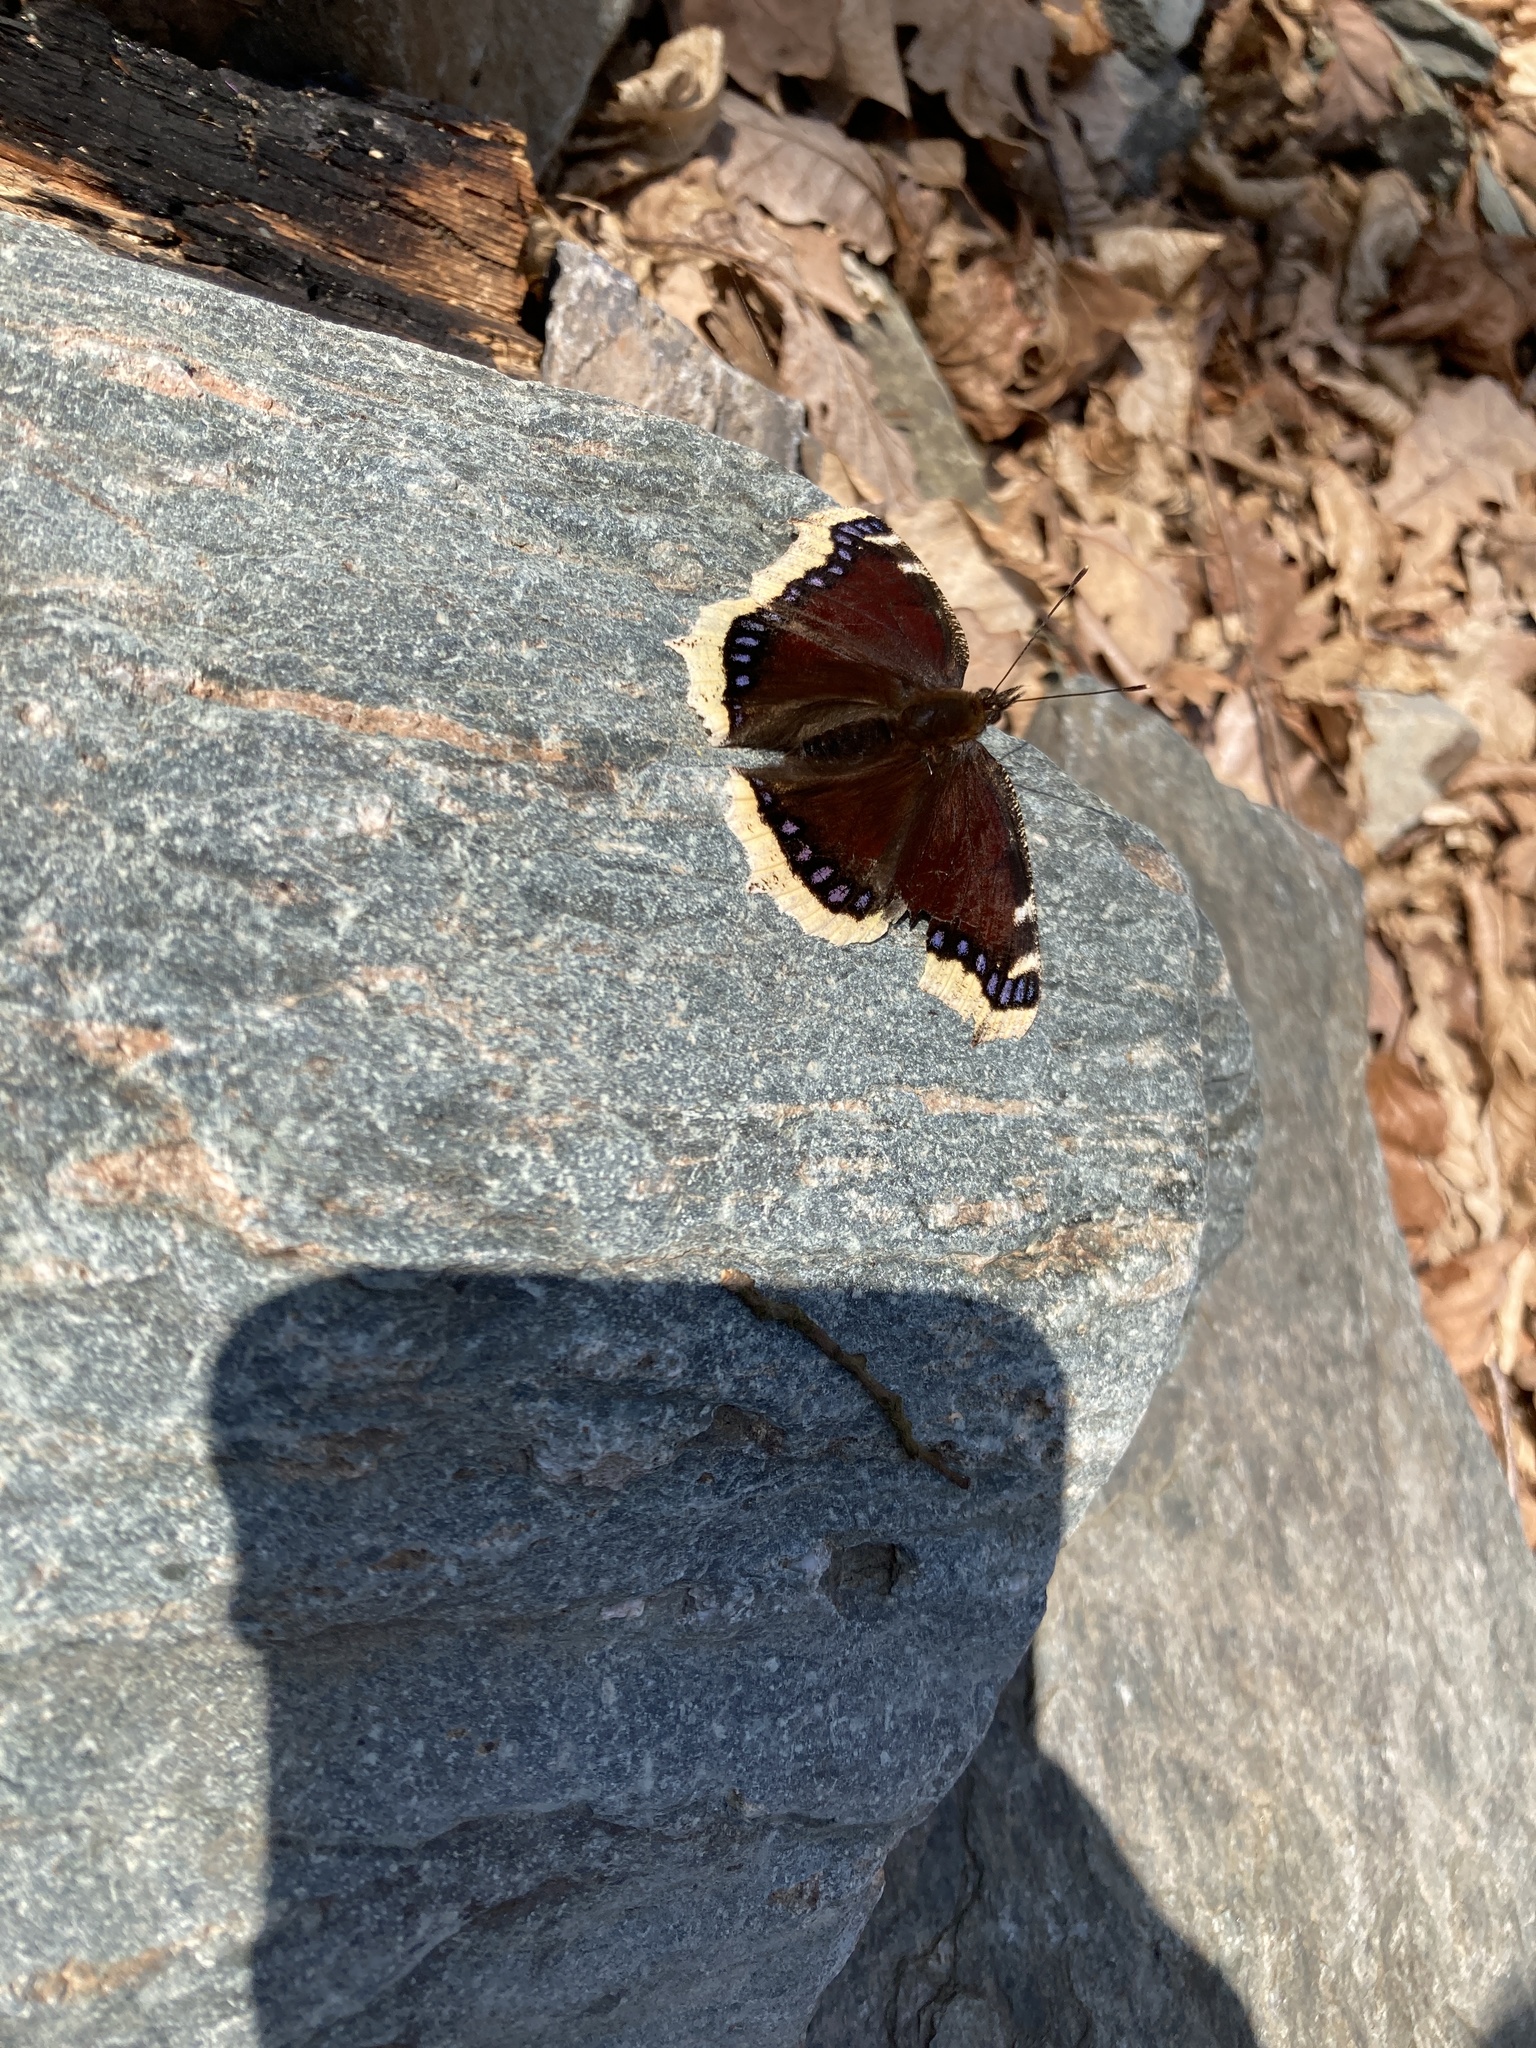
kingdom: Animalia
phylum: Arthropoda
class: Insecta
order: Lepidoptera
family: Nymphalidae
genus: Nymphalis
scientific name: Nymphalis antiopa
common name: Camberwell beauty
